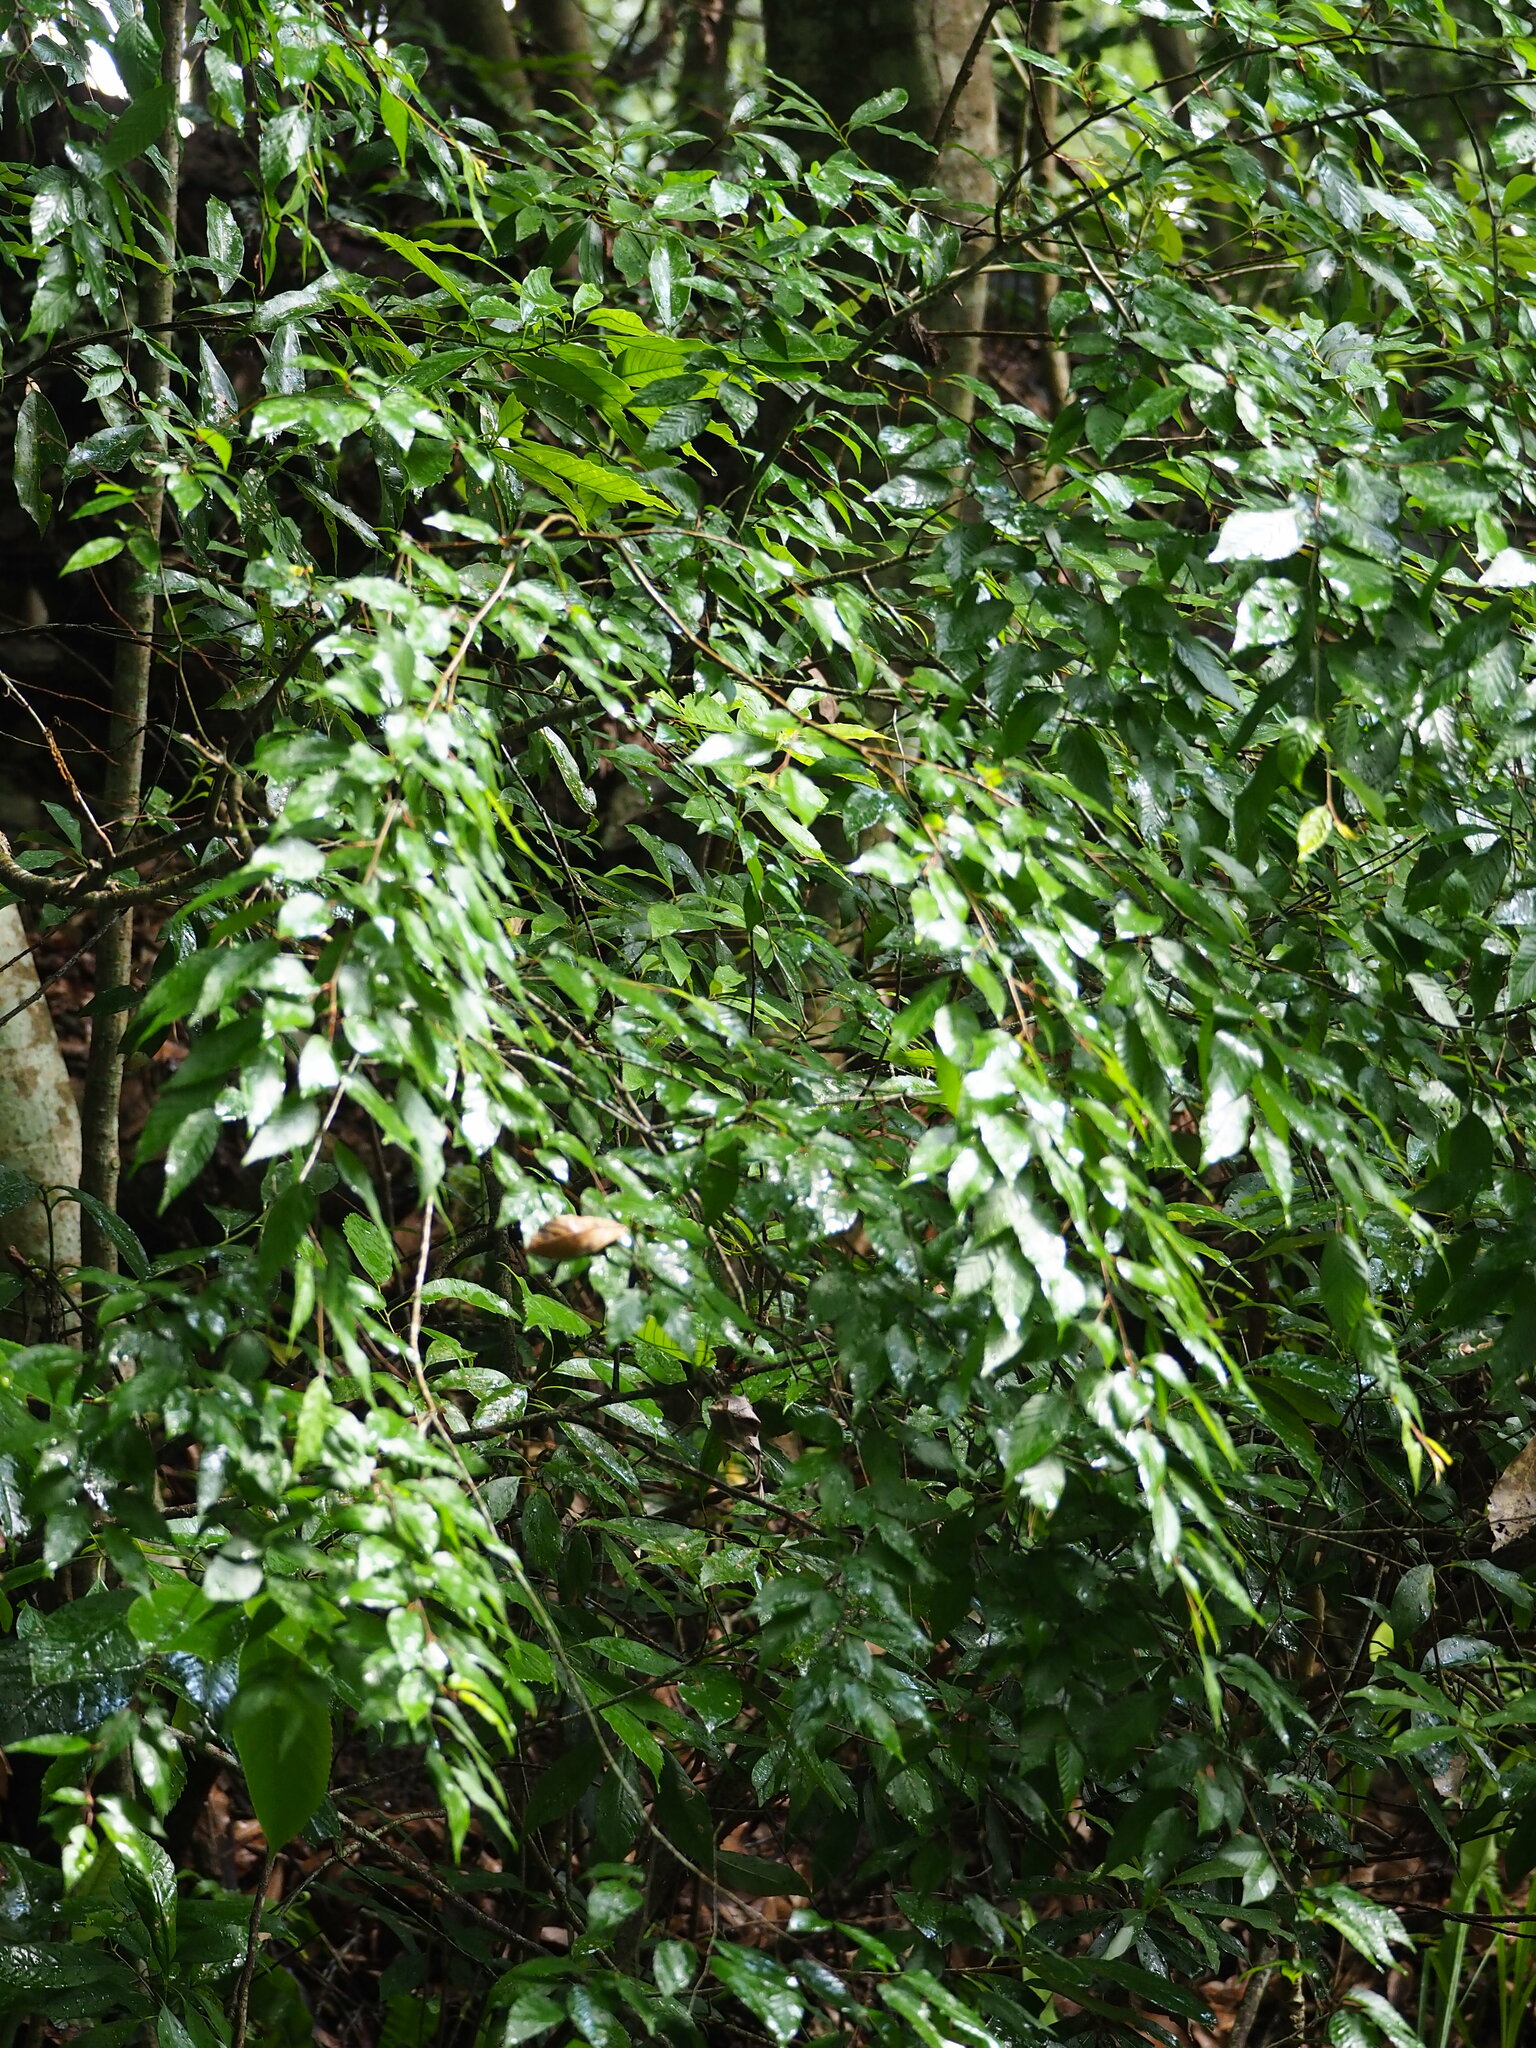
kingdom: Plantae
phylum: Tracheophyta
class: Magnoliopsida
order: Rosales
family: Ulmaceae
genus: Zelkova
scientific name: Zelkova serrata
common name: Japanese zelkova
